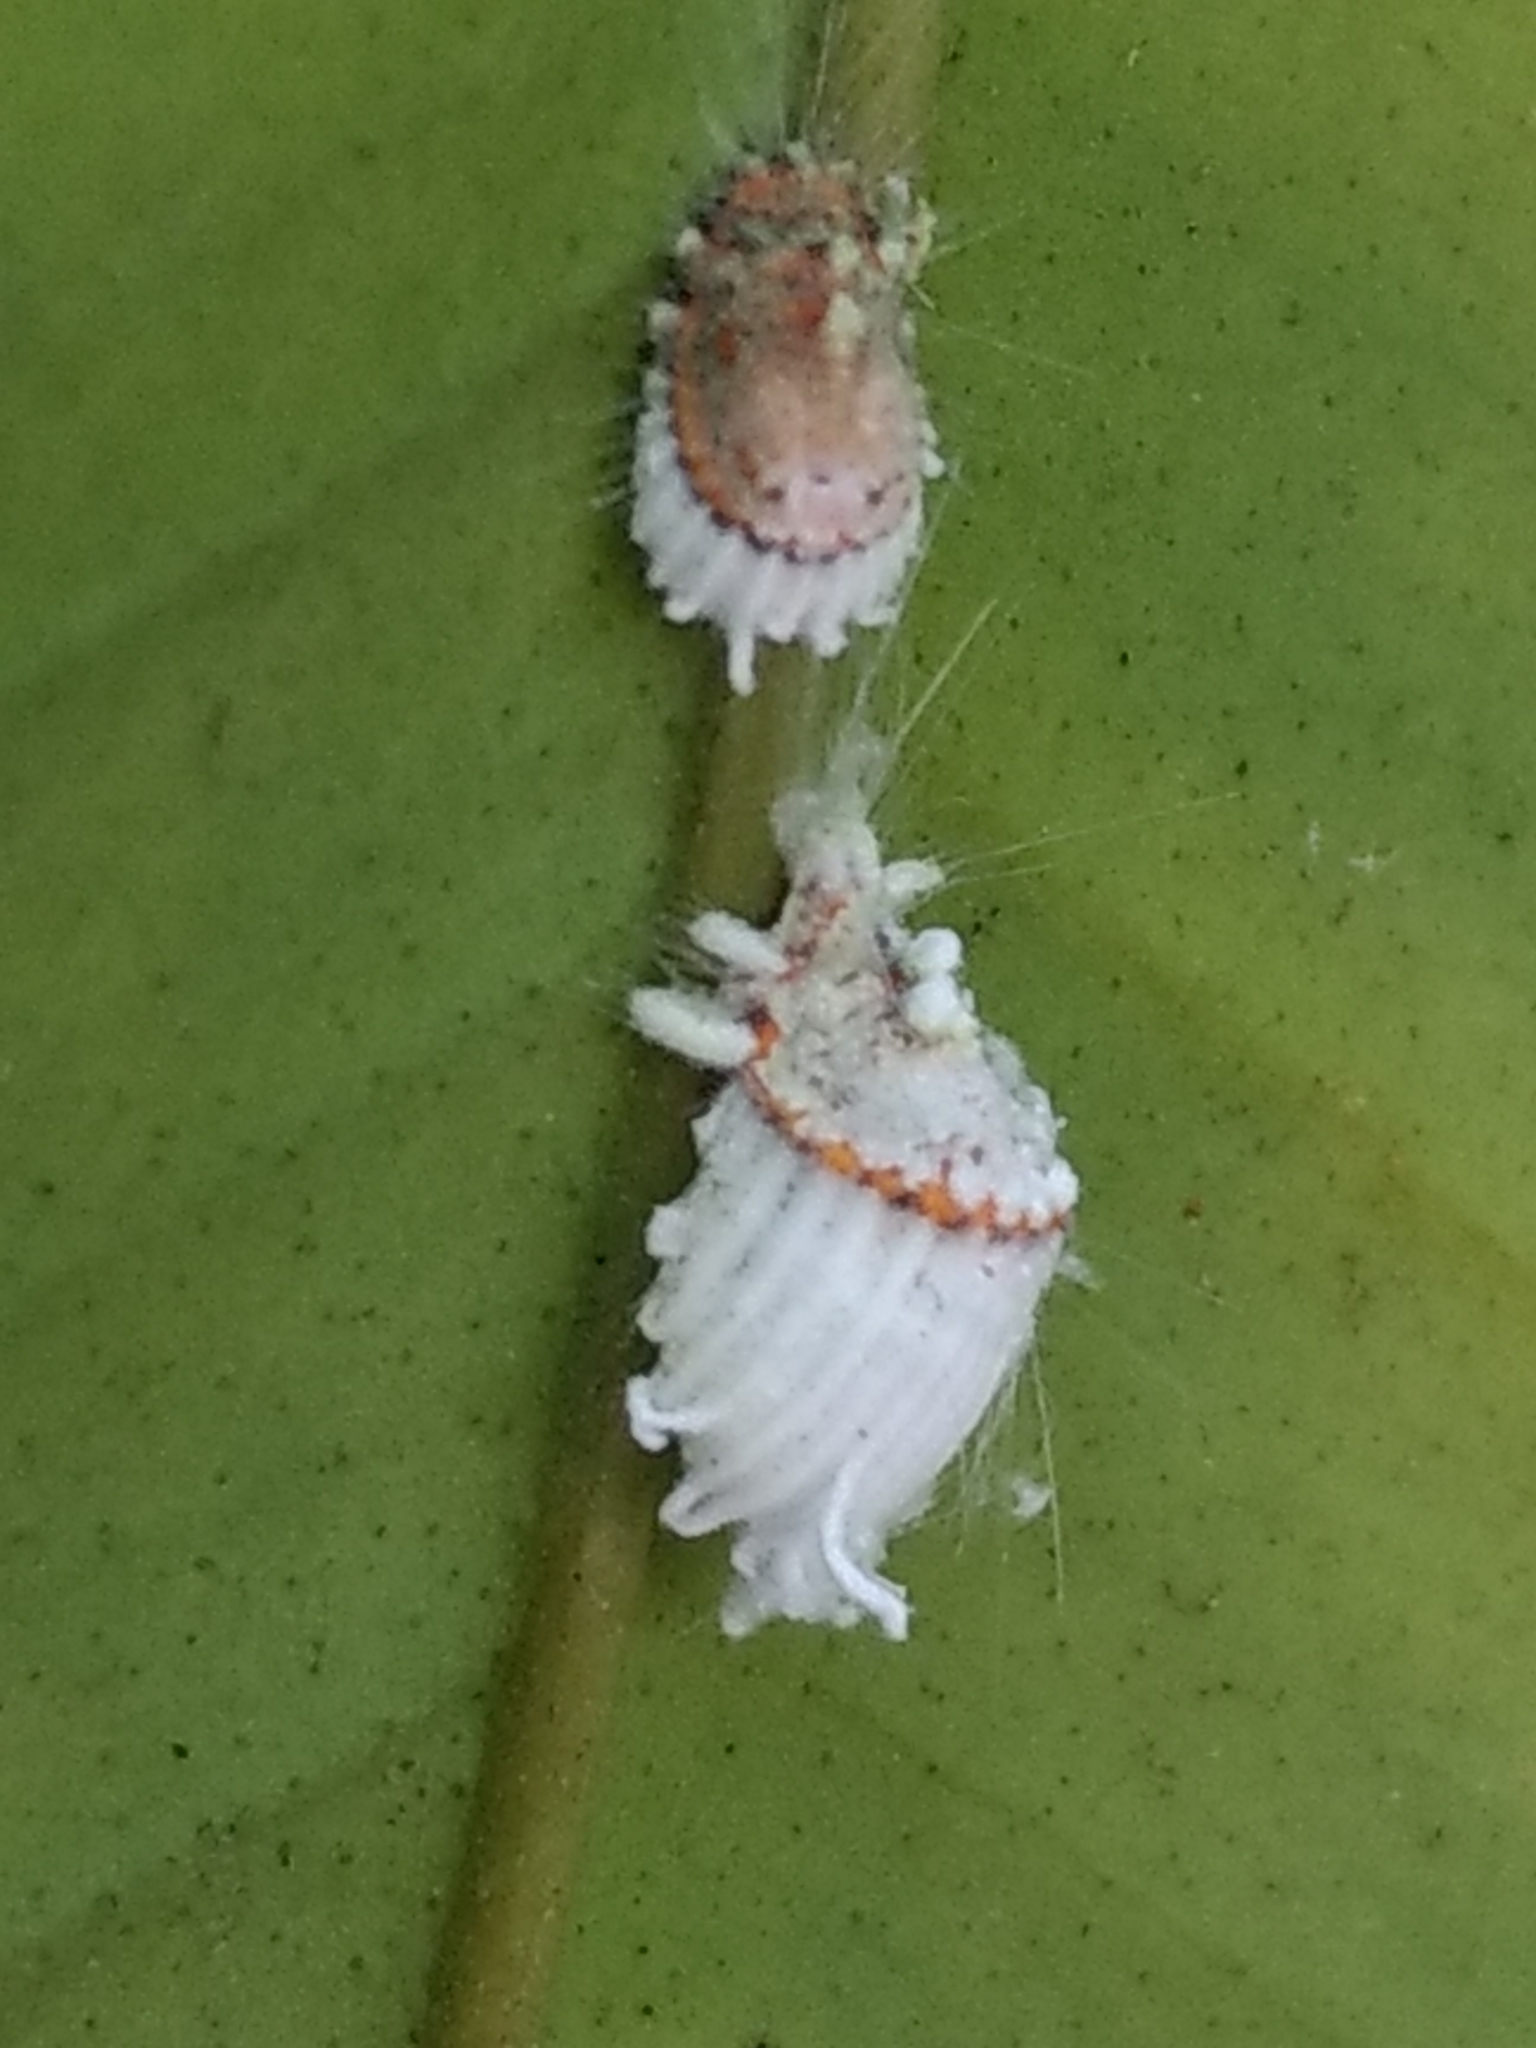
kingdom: Animalia
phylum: Arthropoda
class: Insecta
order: Hemiptera
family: Margarodidae
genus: Icerya
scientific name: Icerya purchasi
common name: Cottony cushion scale
